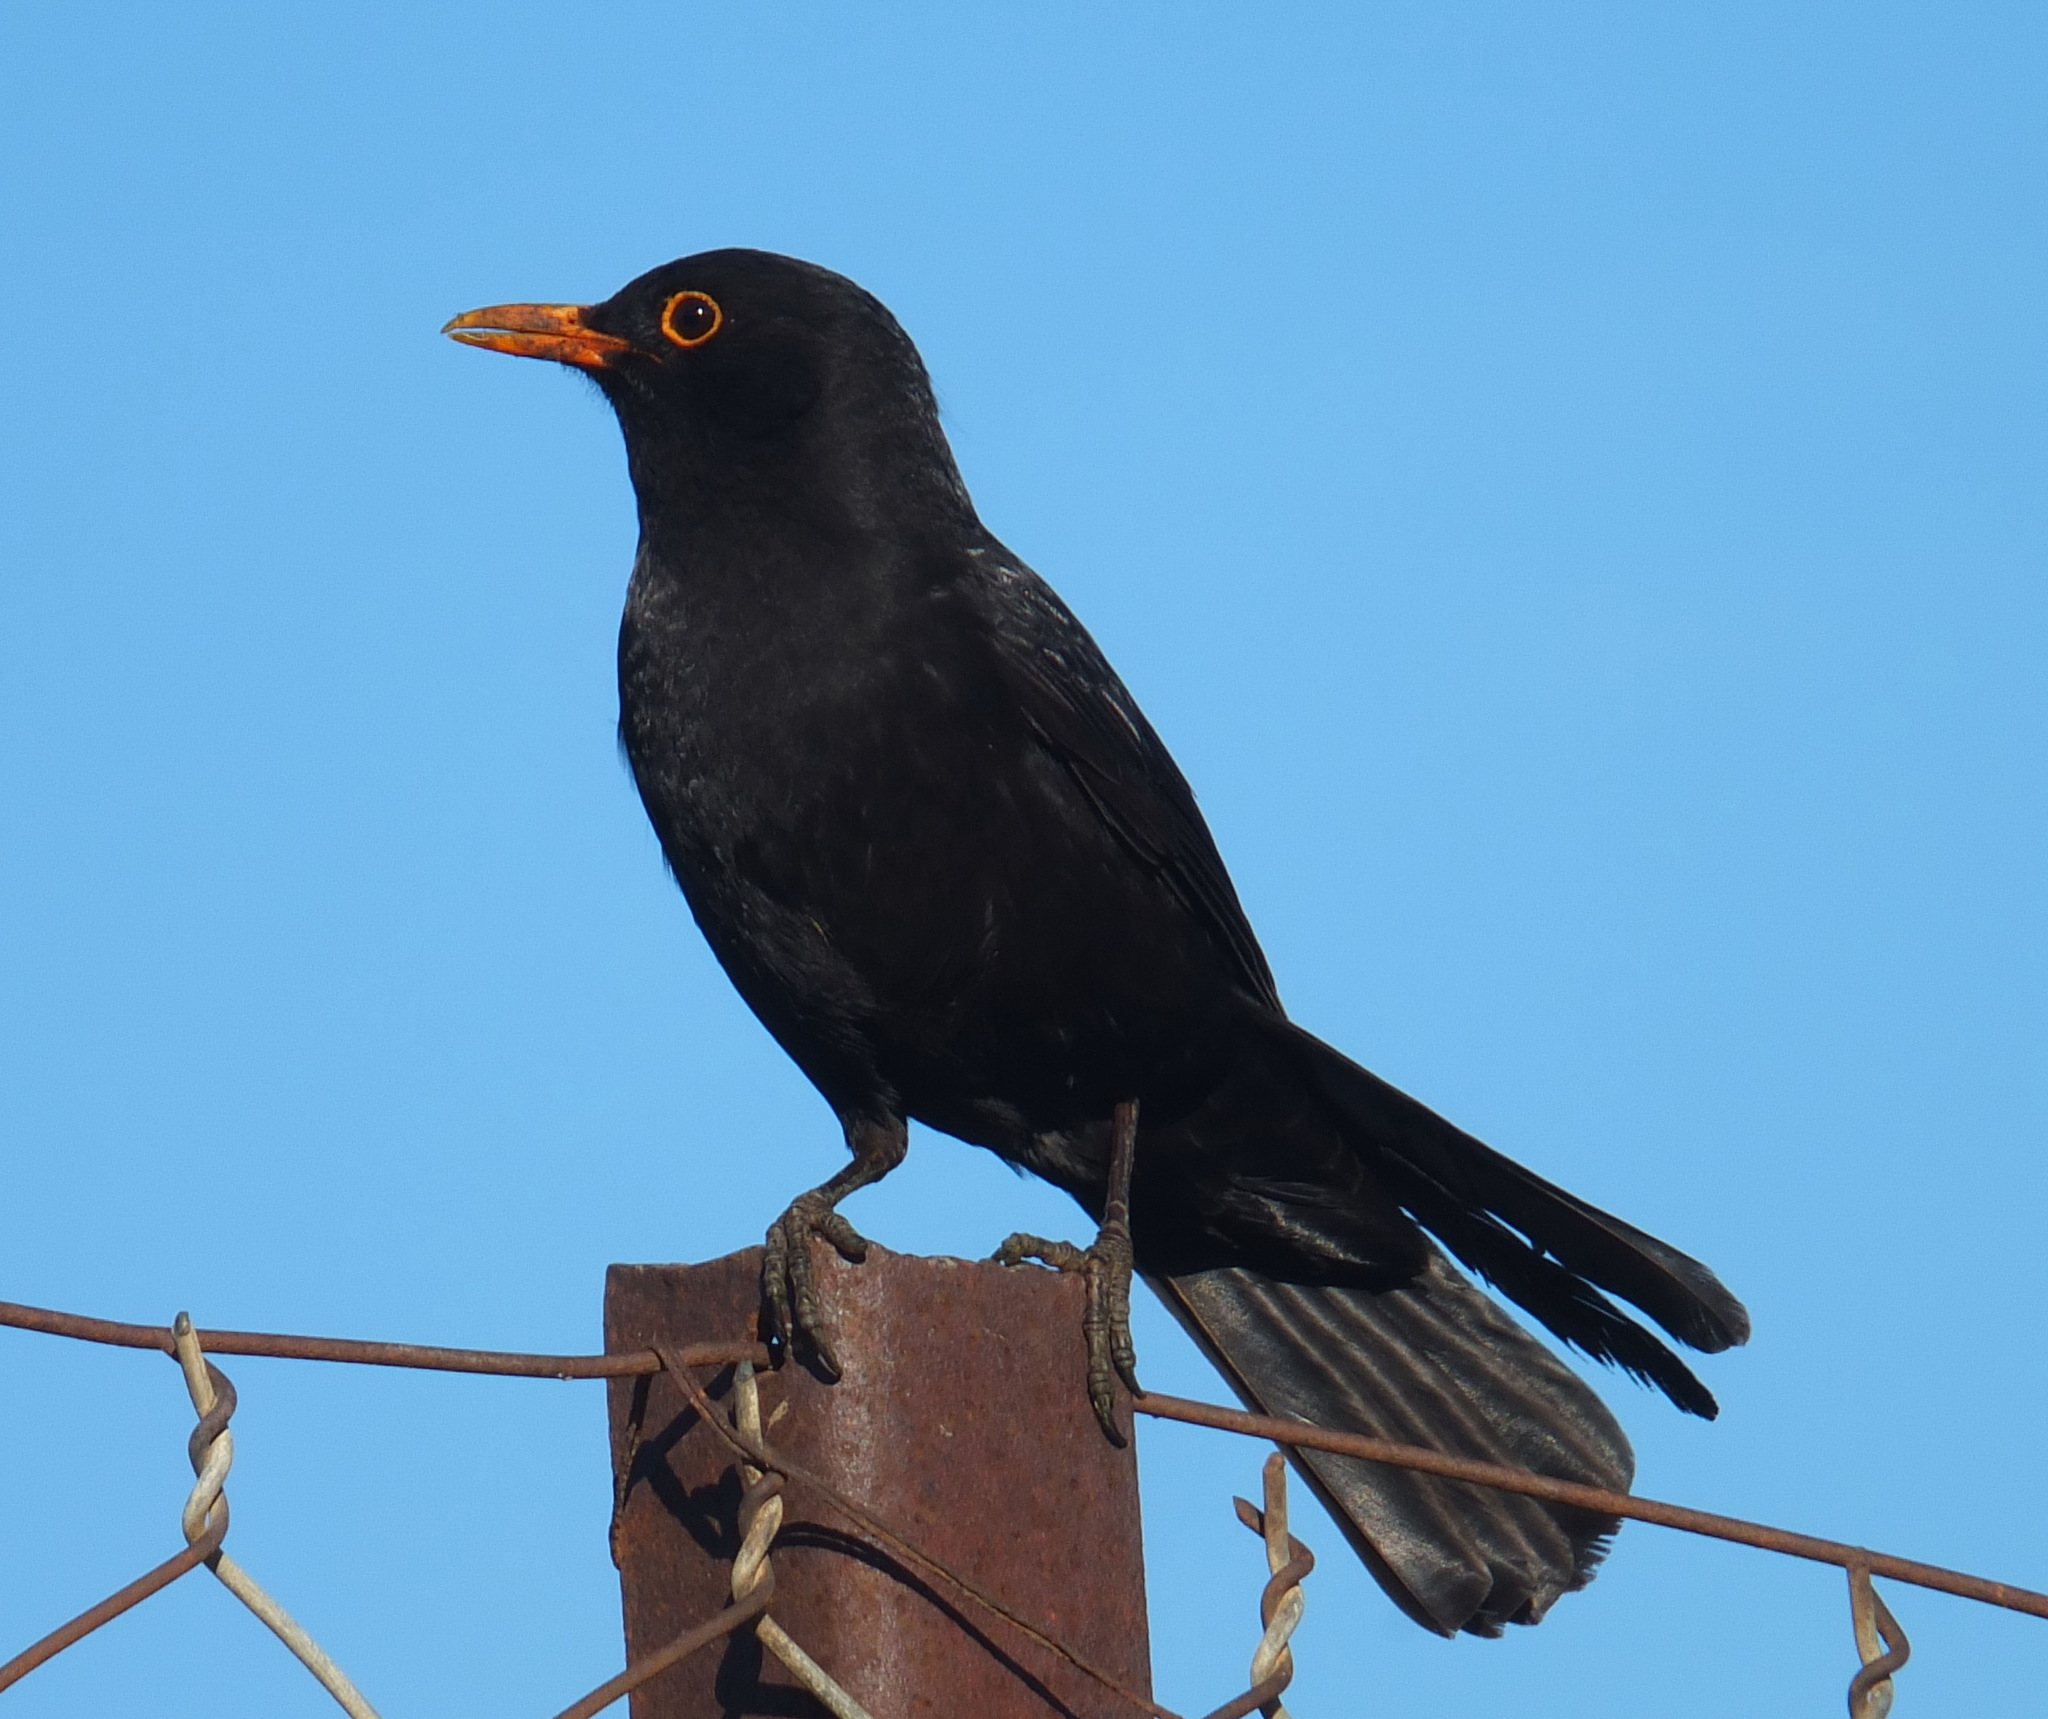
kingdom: Animalia
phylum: Chordata
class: Aves
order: Passeriformes
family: Turdidae
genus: Turdus
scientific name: Turdus merula
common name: Common blackbird
